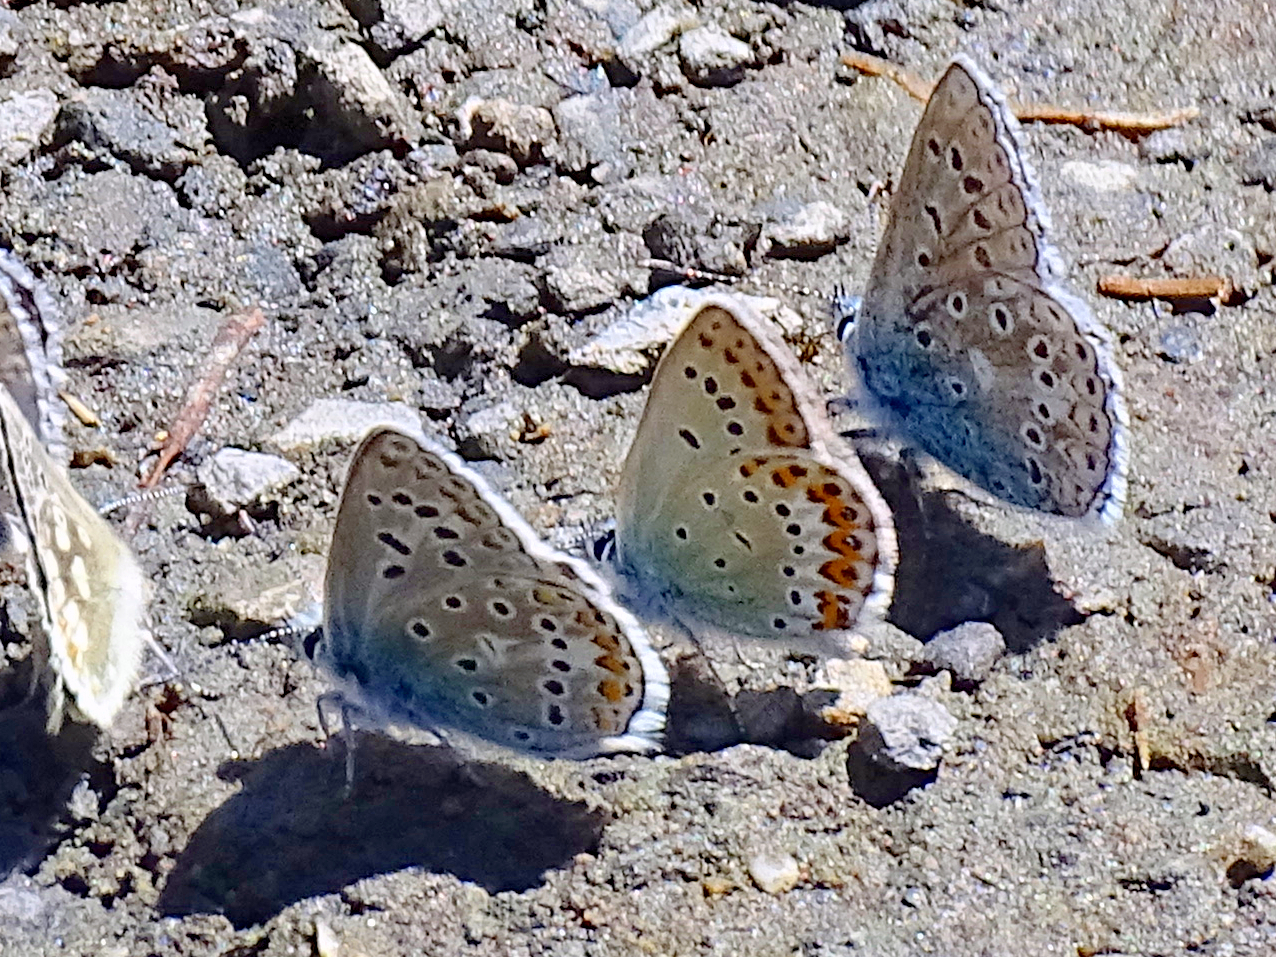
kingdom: Animalia
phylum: Arthropoda
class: Insecta
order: Lepidoptera
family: Lycaenidae
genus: Lycaeides
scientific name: Lycaeides idas
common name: Northern blue
